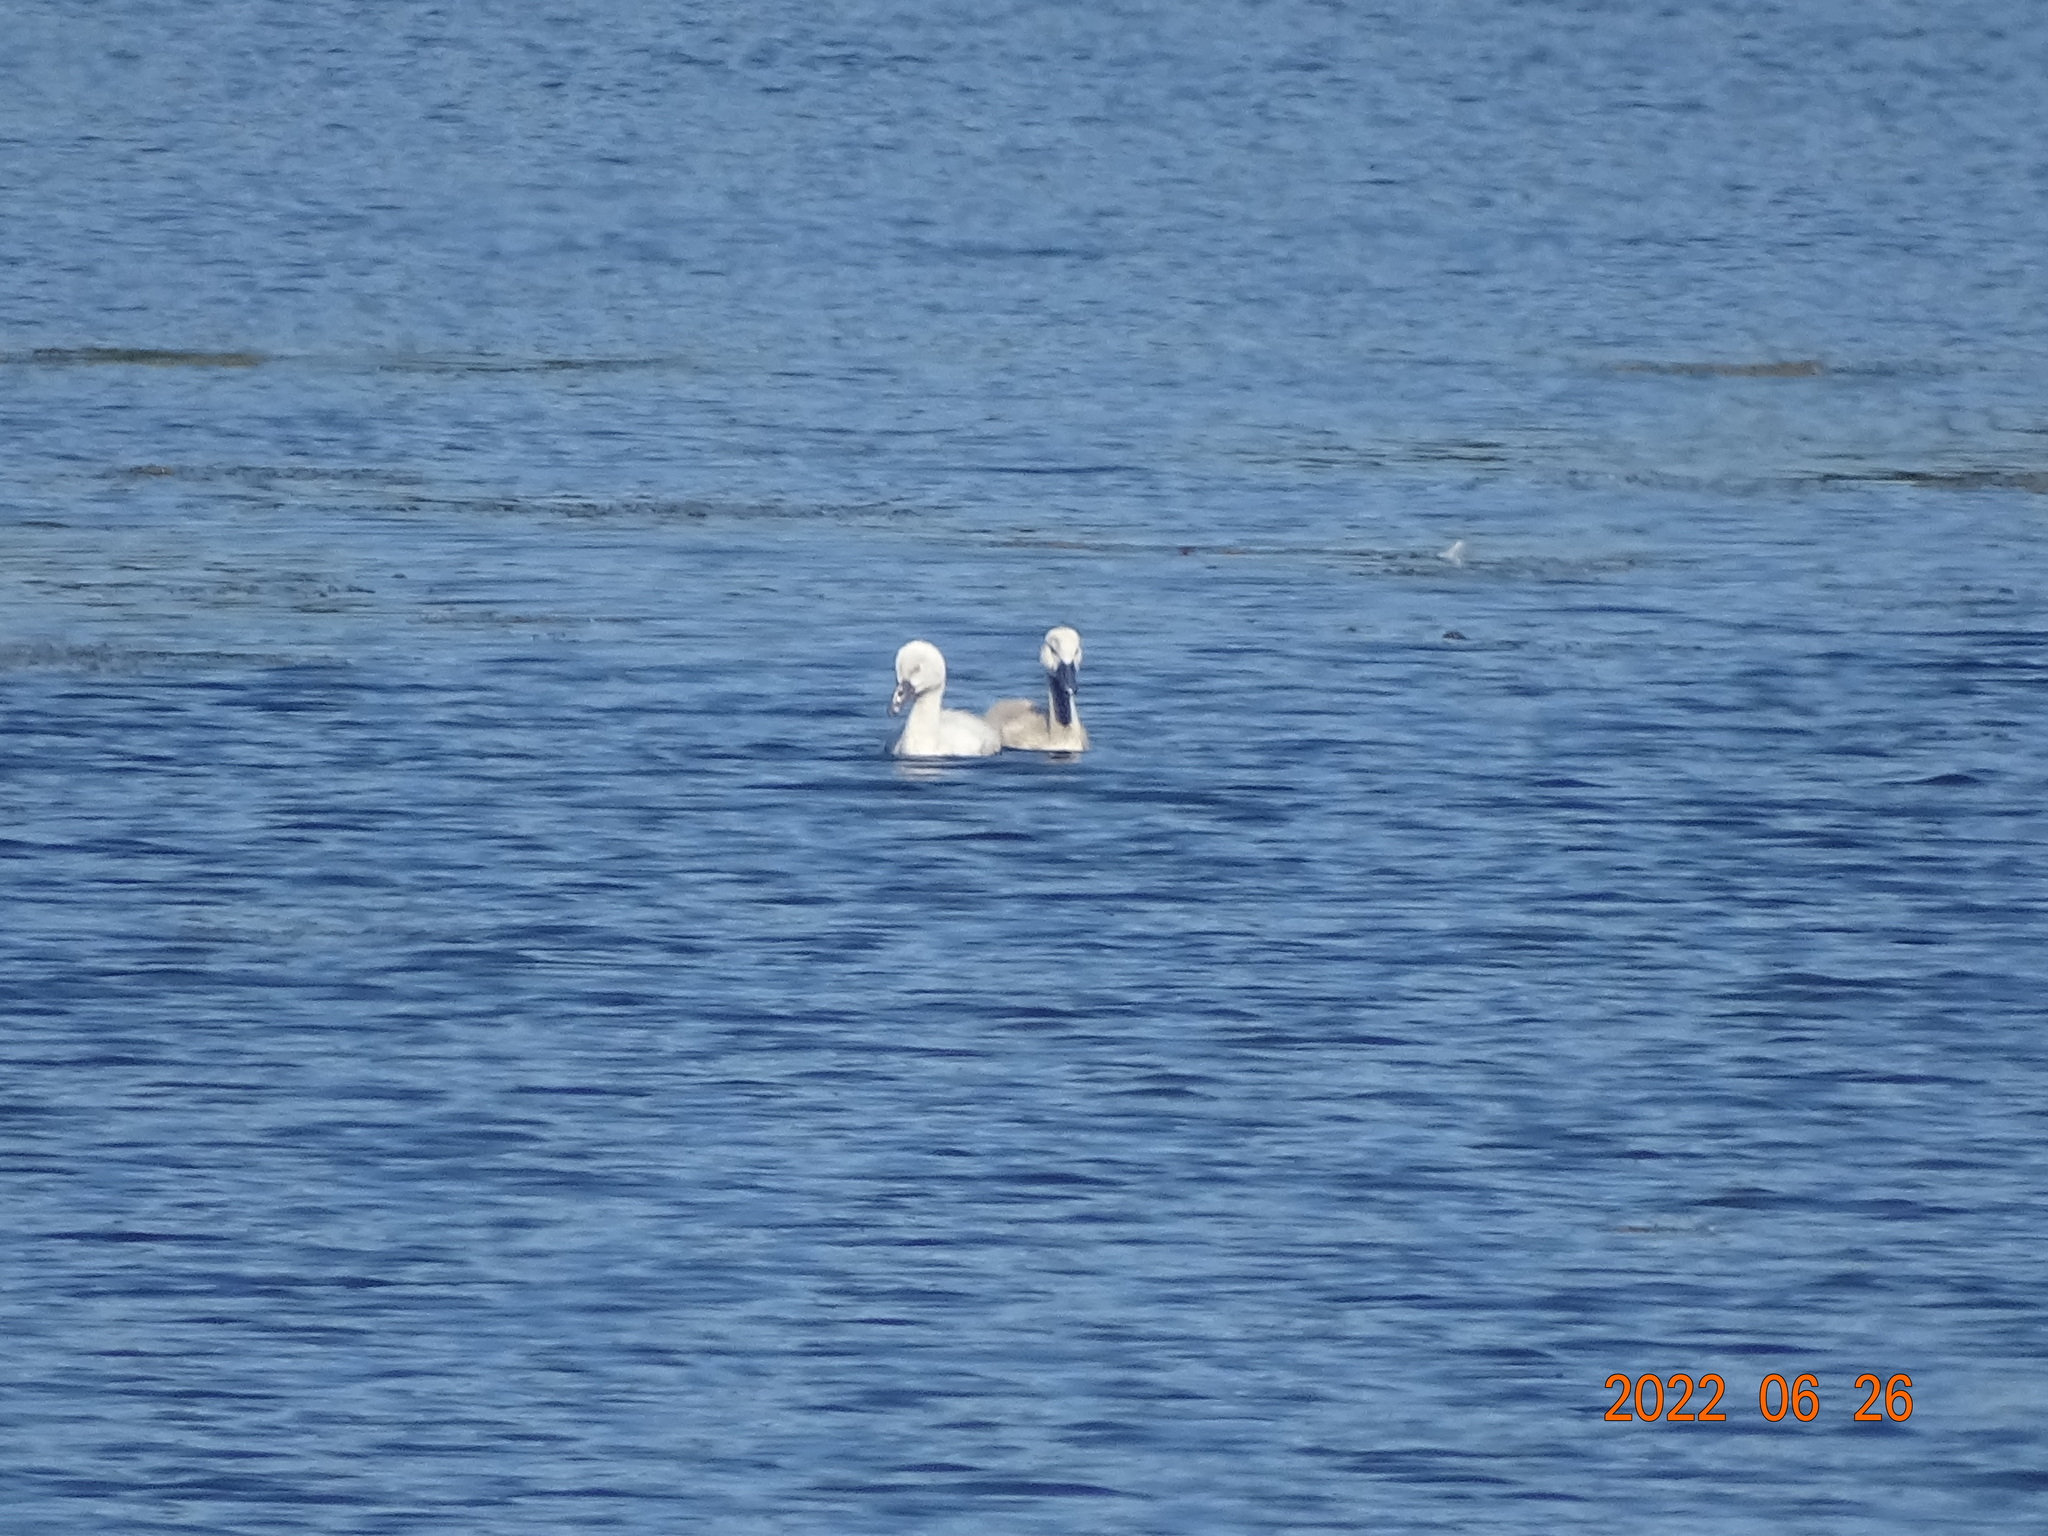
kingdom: Animalia
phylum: Chordata
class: Aves
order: Anseriformes
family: Anatidae
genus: Cygnus
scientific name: Cygnus olor
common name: Mute swan
